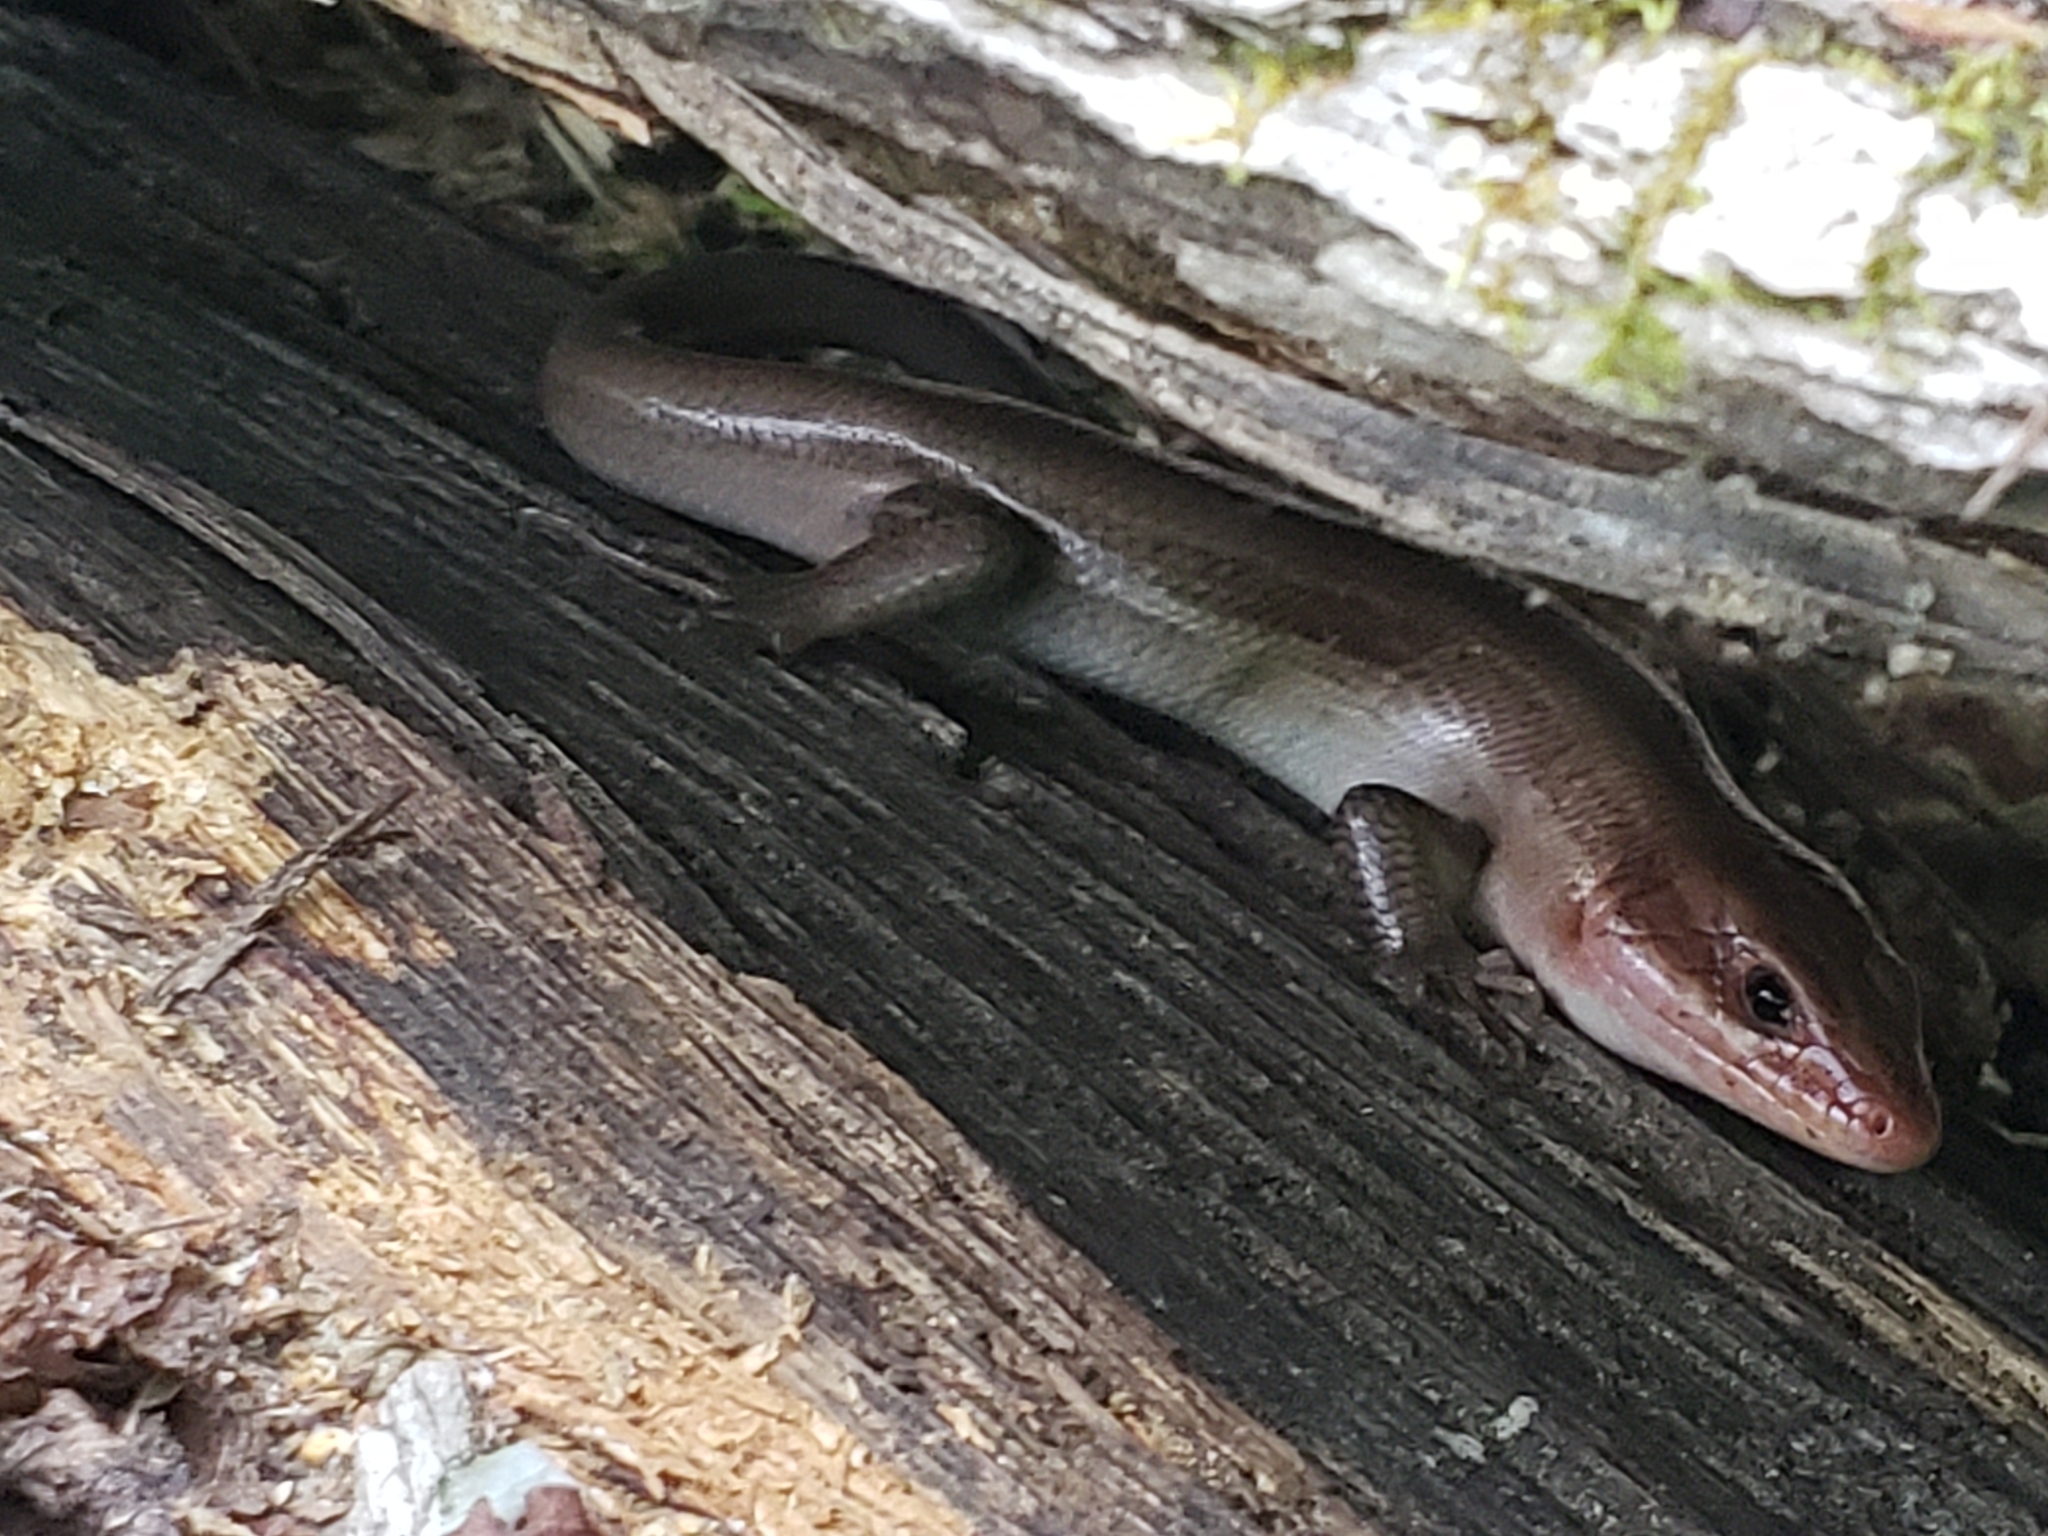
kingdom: Animalia
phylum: Chordata
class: Squamata
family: Scincidae
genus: Plestiodon
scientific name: Plestiodon laticeps
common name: Broadhead skink
